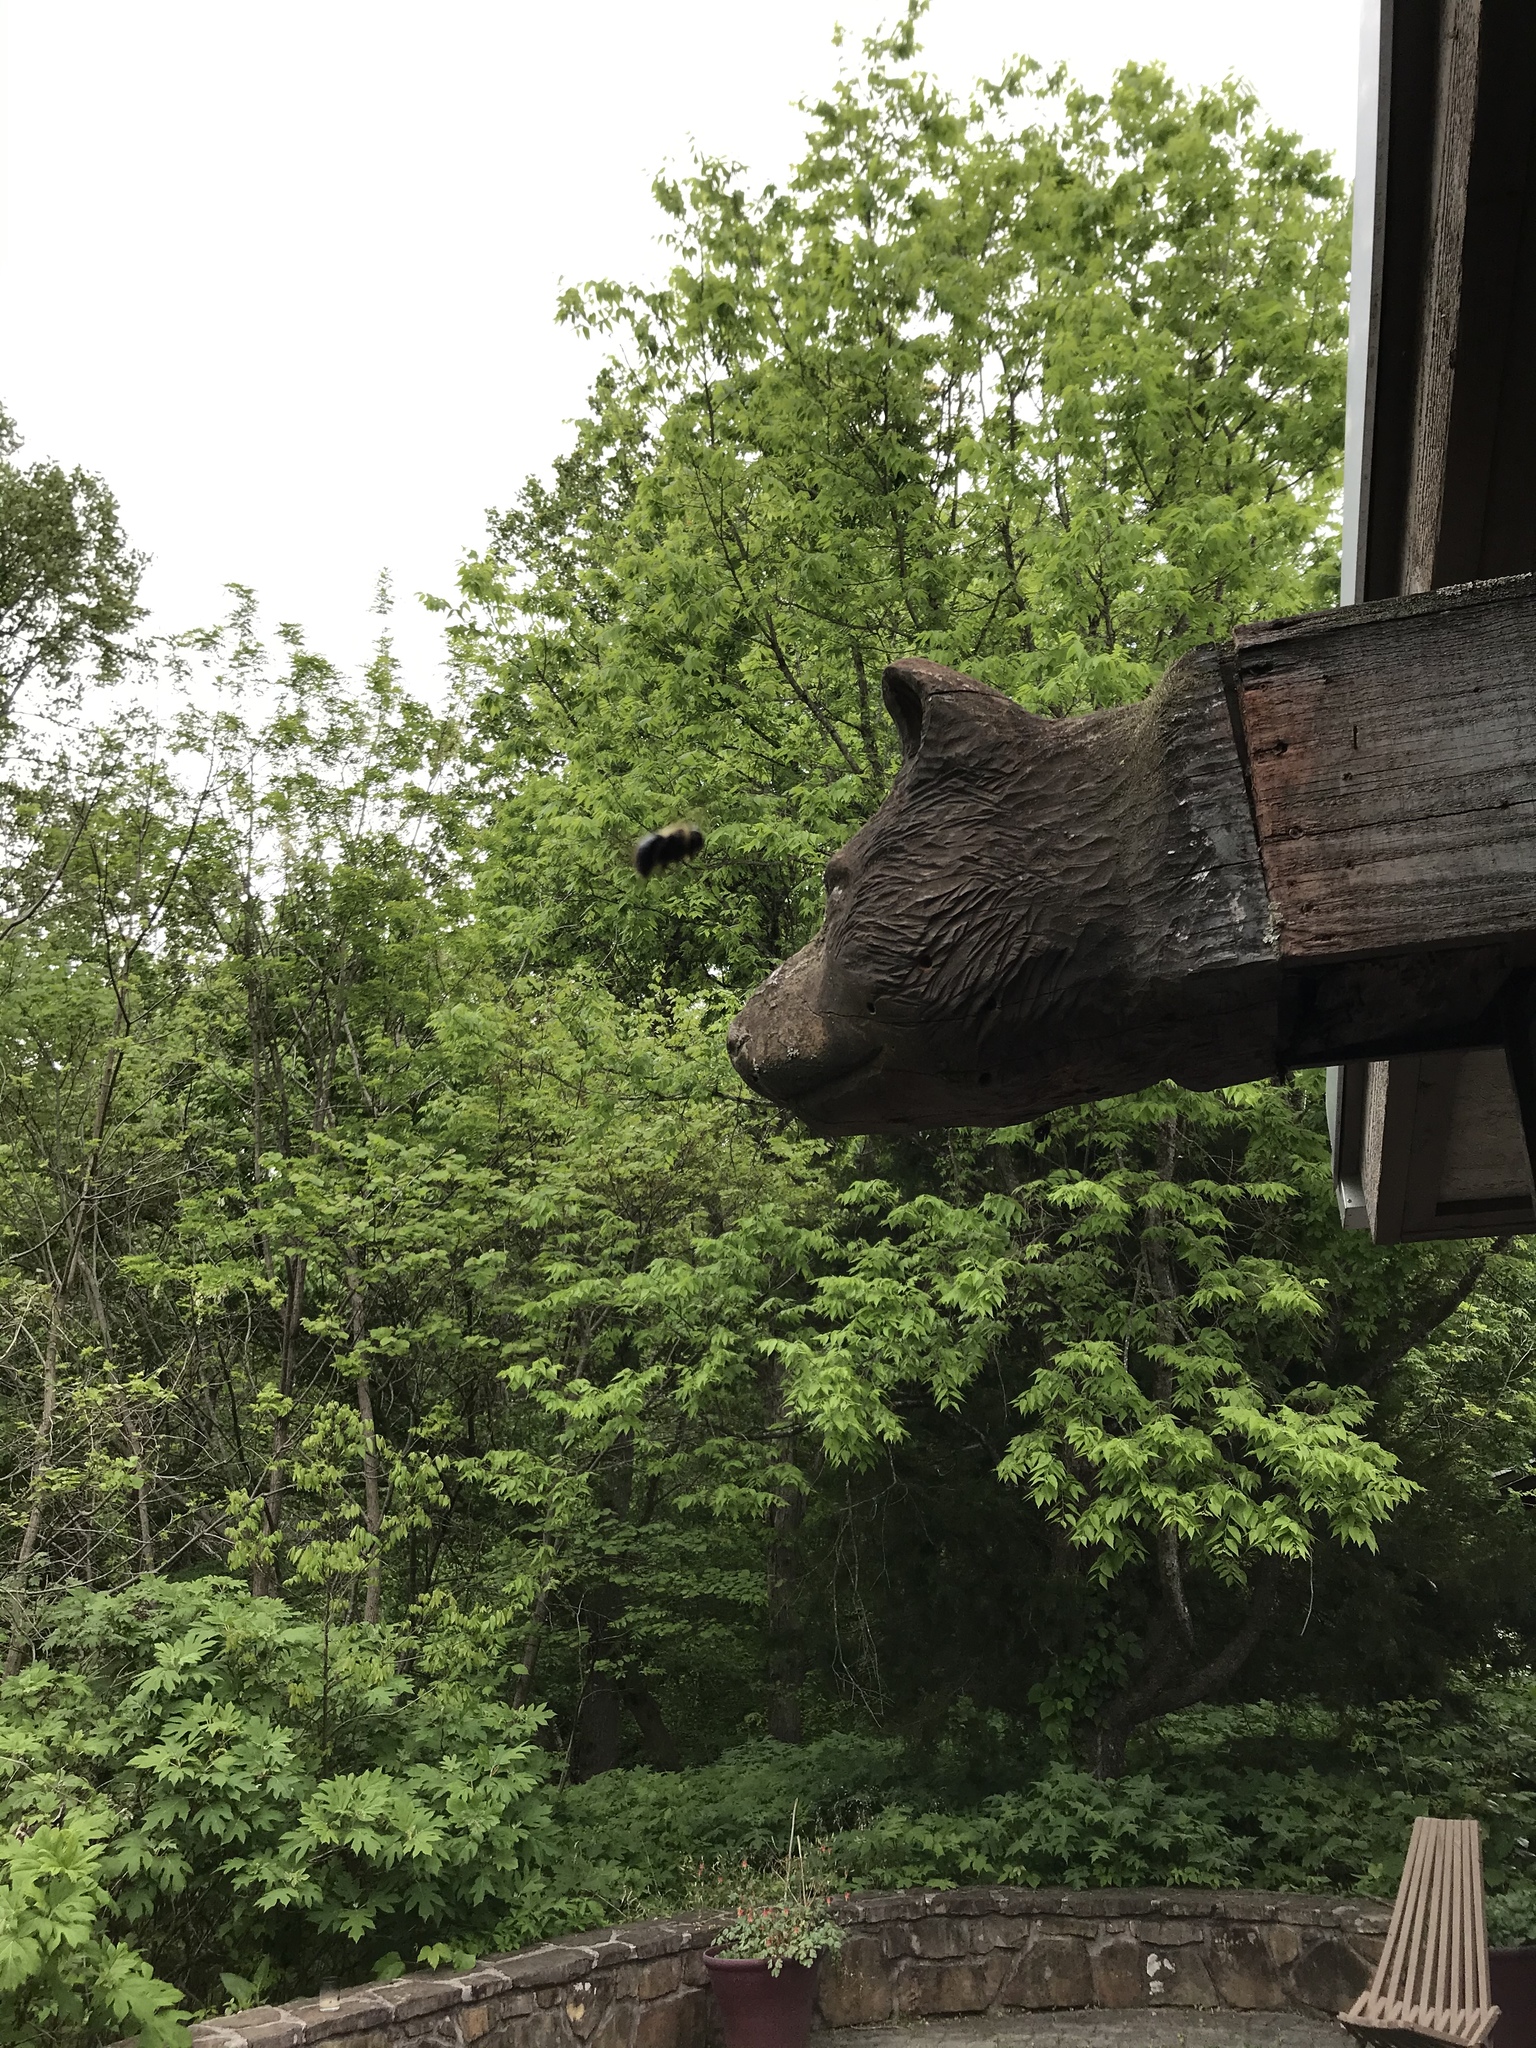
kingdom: Animalia
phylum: Arthropoda
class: Insecta
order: Hymenoptera
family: Apidae
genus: Xylocopa
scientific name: Xylocopa virginica
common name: Carpenter bee
